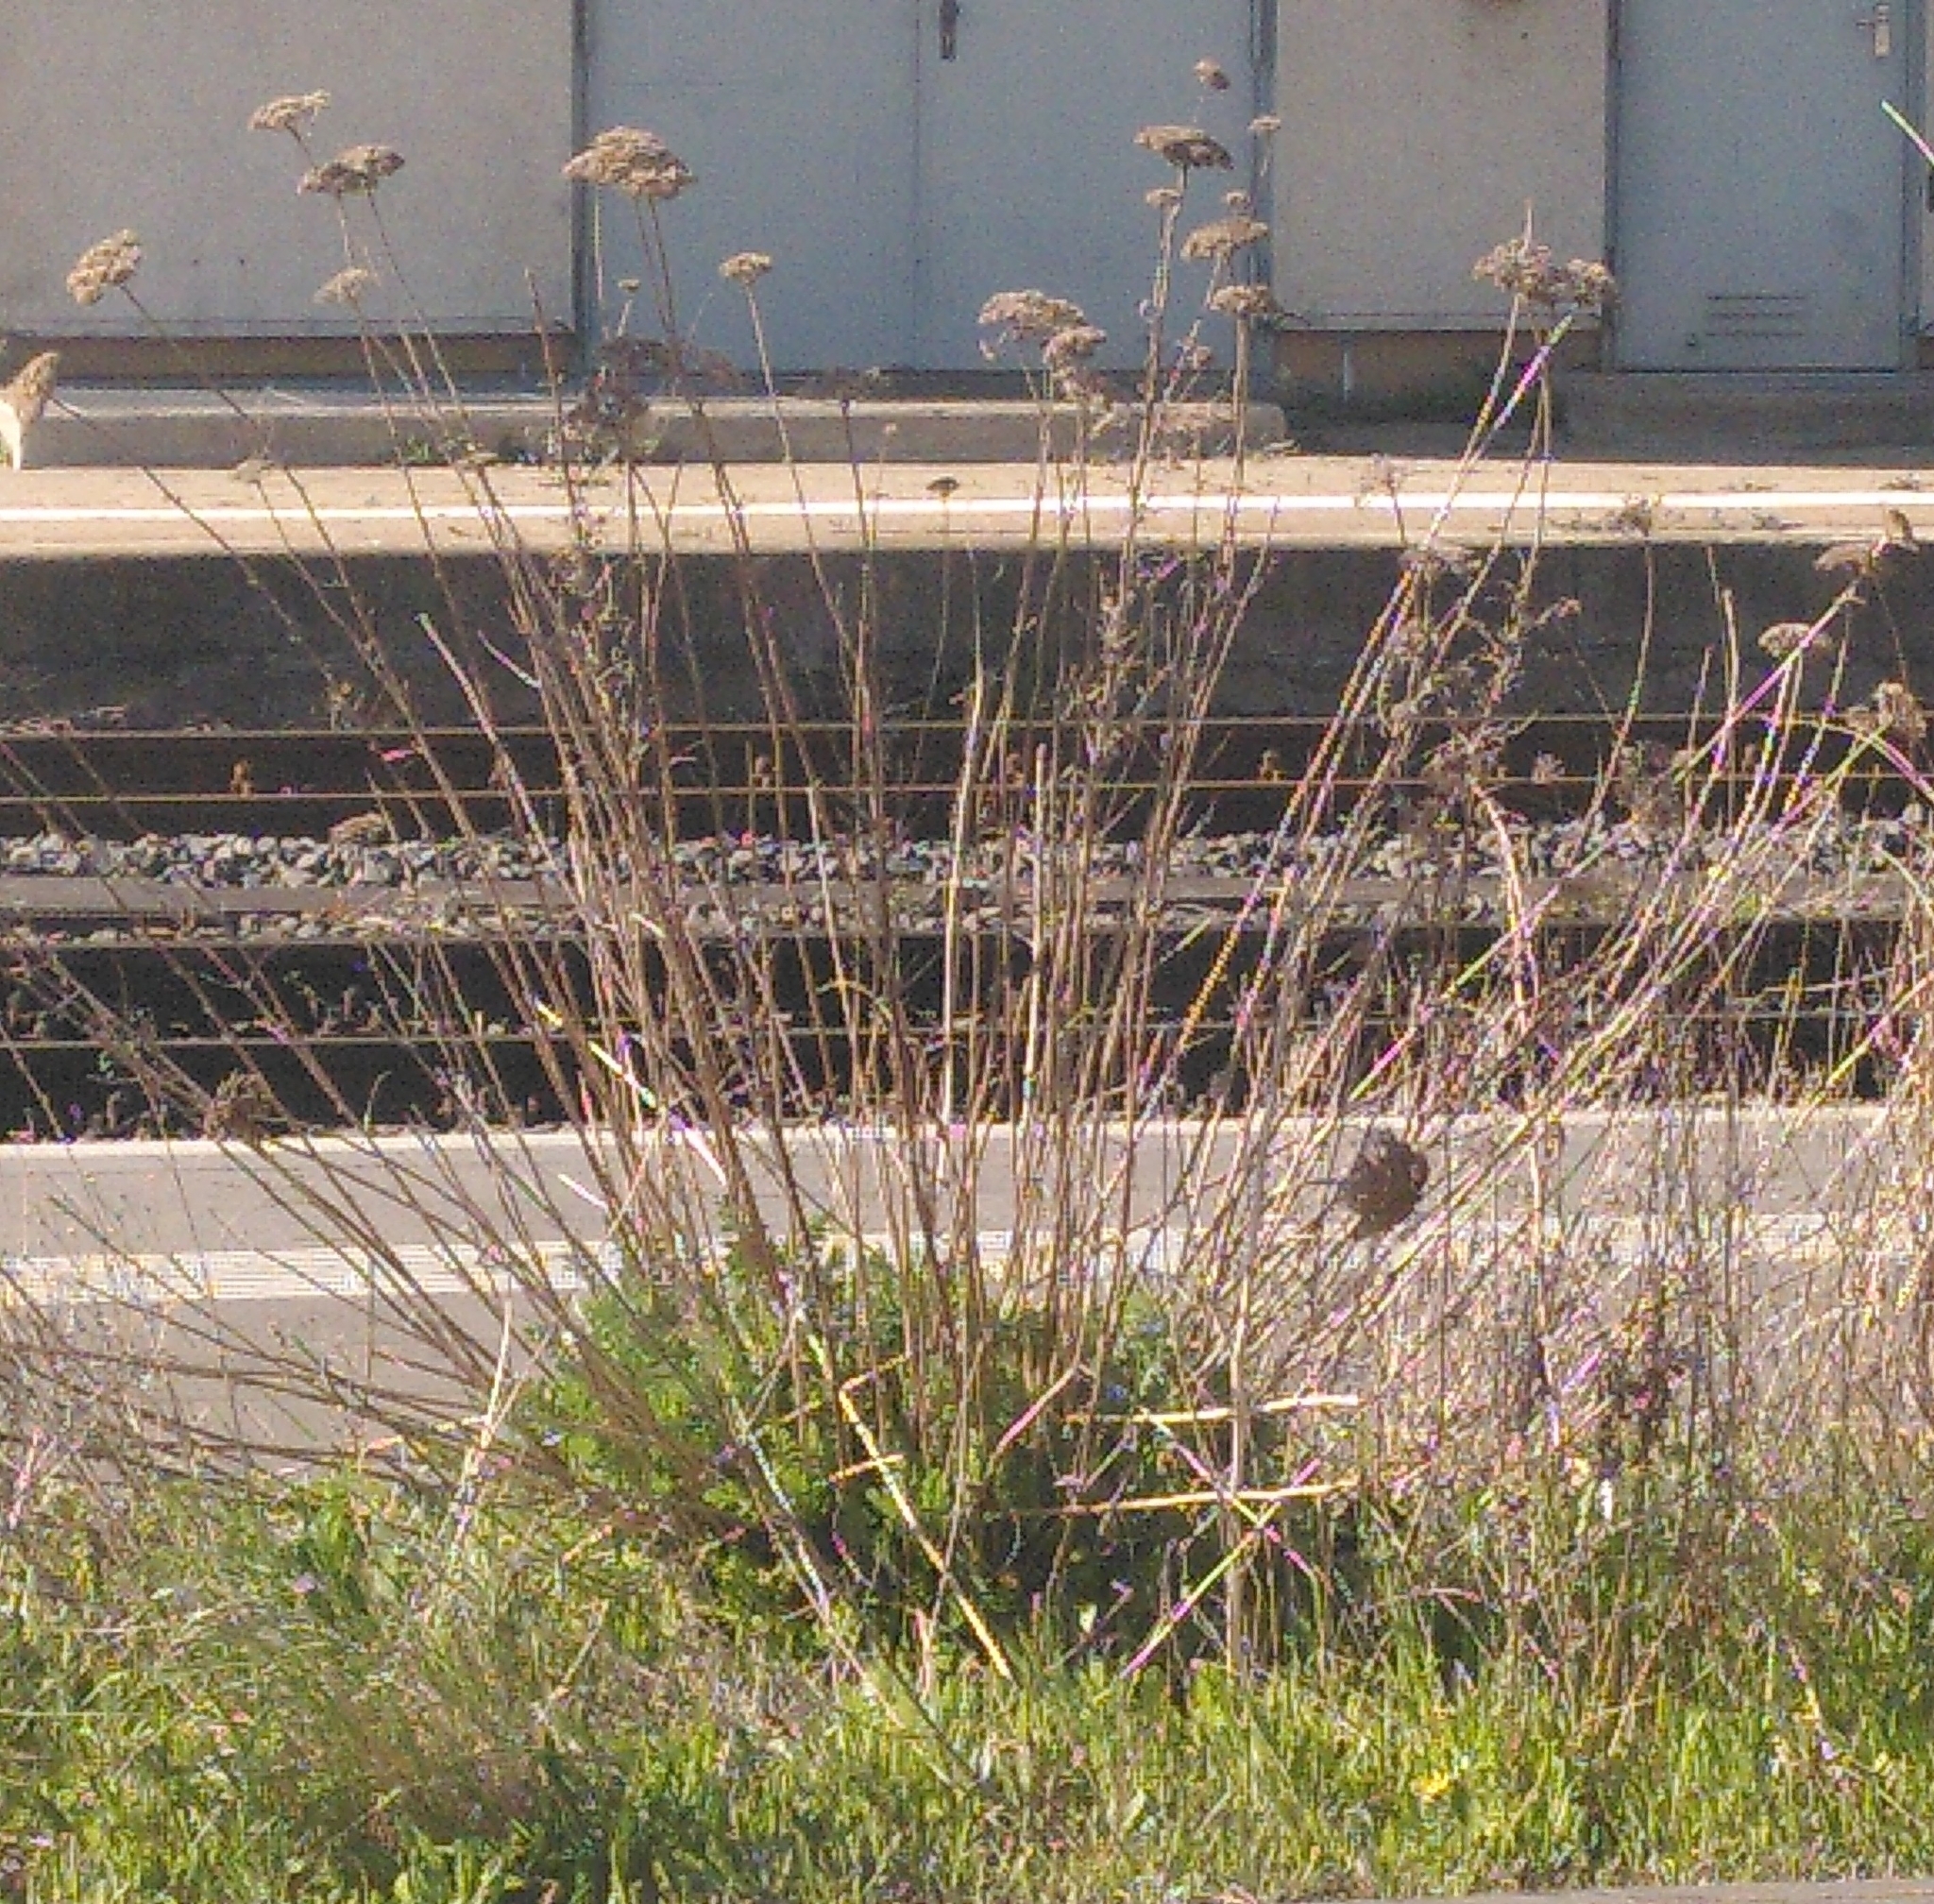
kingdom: Plantae
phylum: Tracheophyta
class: Magnoliopsida
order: Asterales
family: Asteraceae
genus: Tanacetum
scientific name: Tanacetum vulgare
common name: Common tansy
